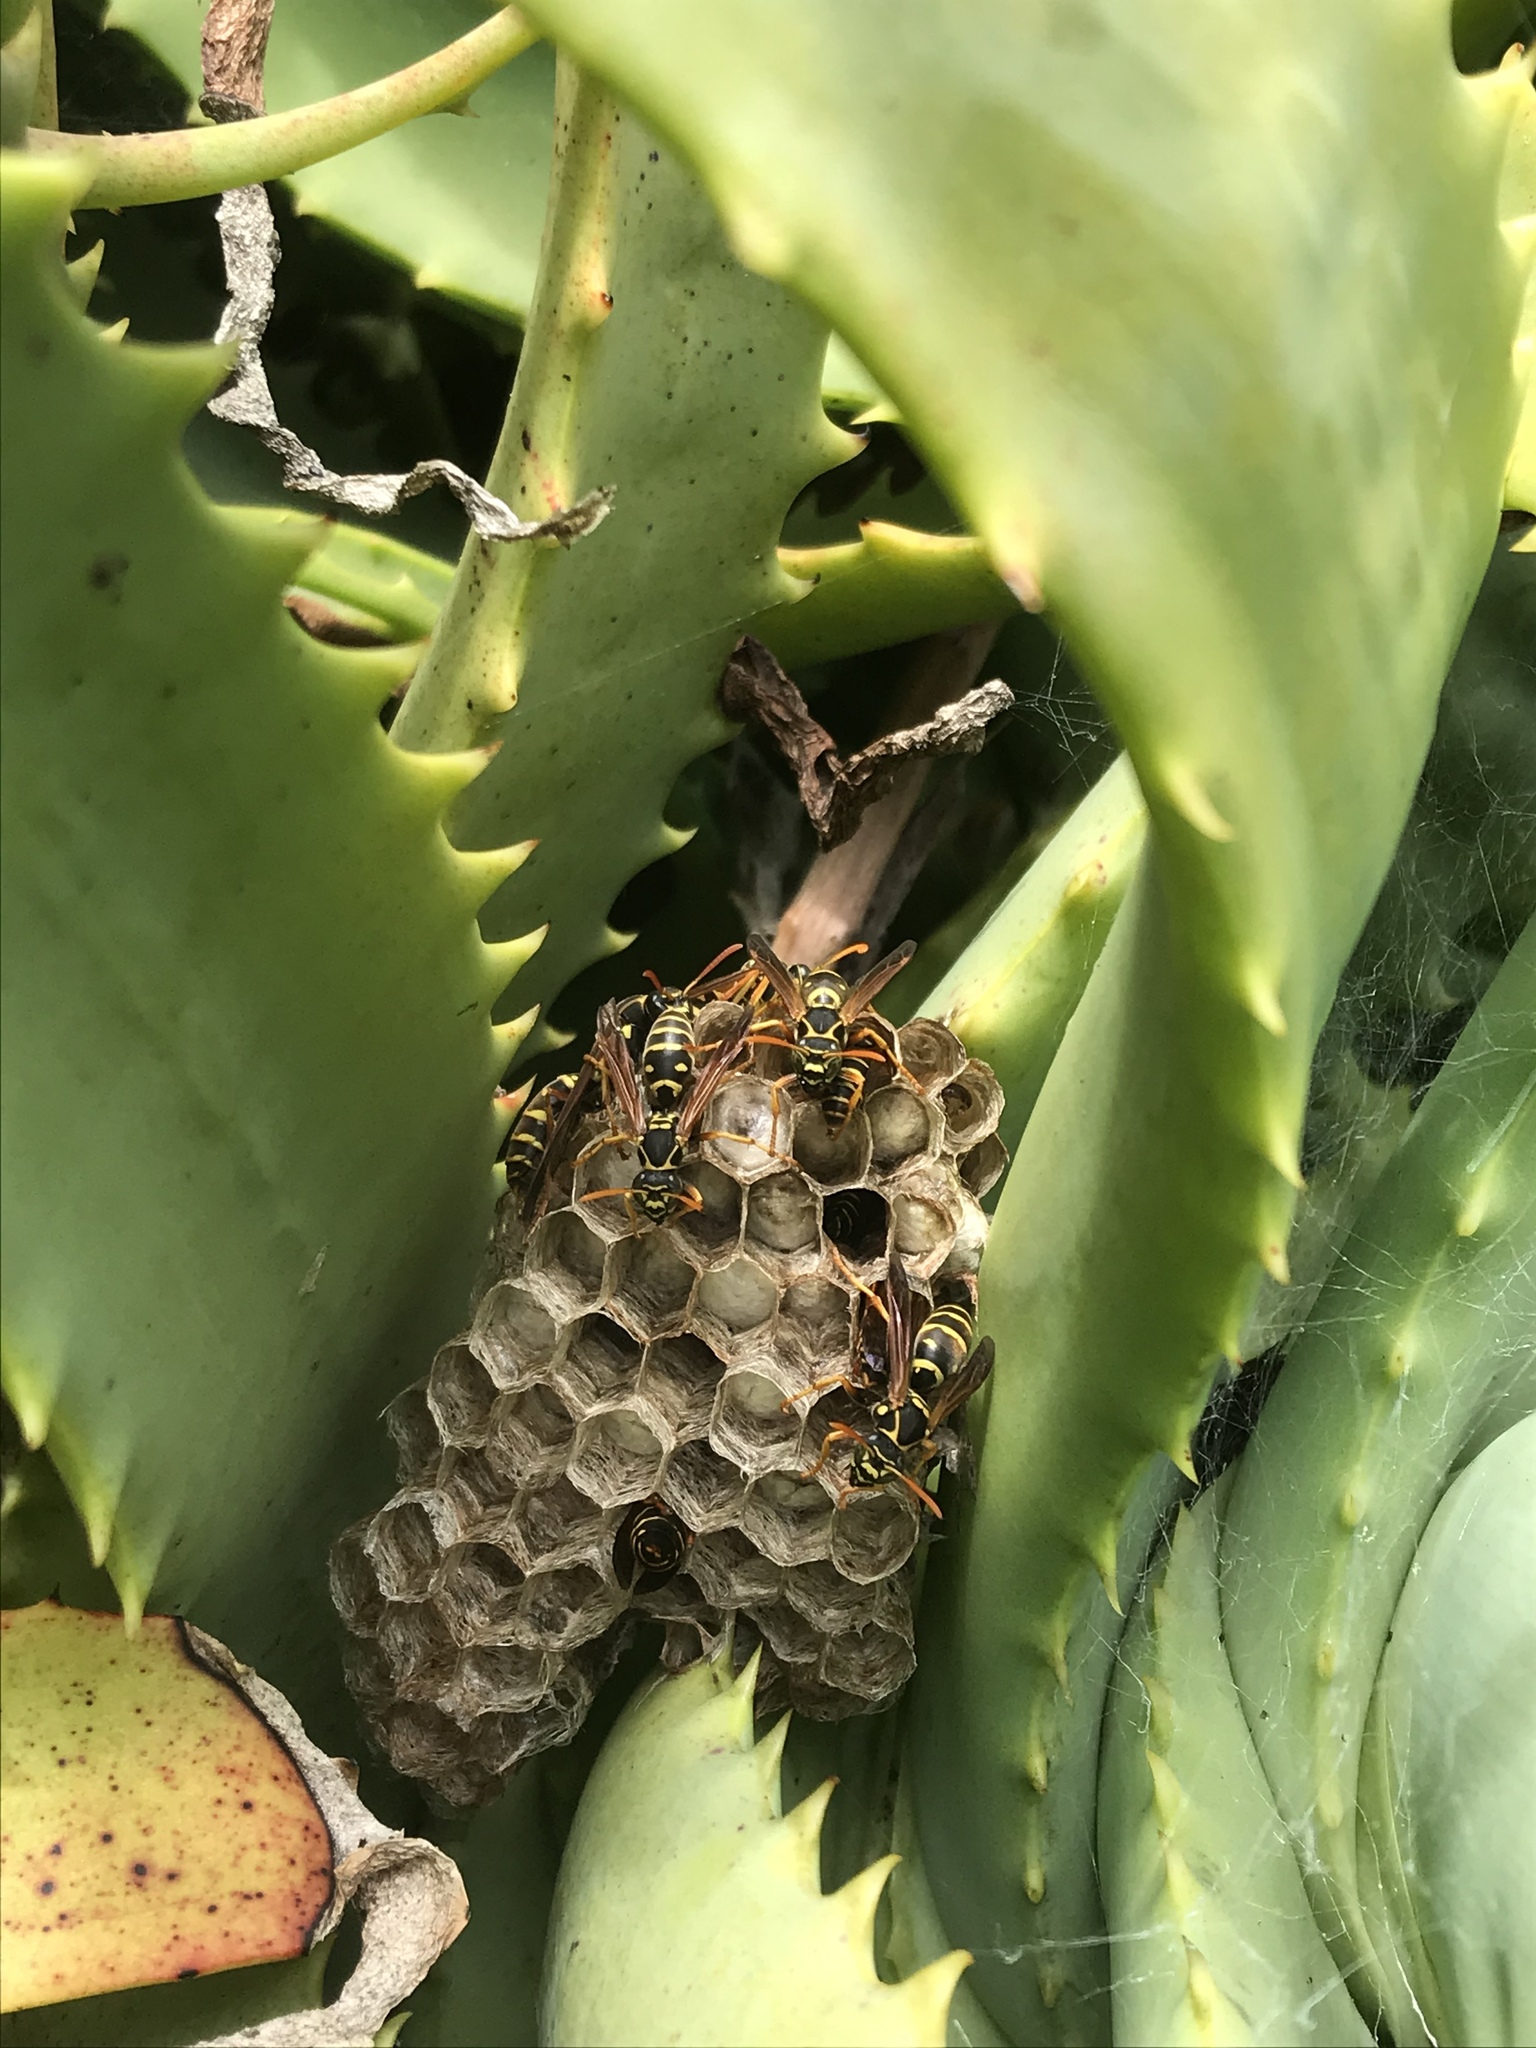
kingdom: Animalia
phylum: Arthropoda
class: Insecta
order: Hymenoptera
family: Eumenidae
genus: Polistes
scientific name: Polistes chinensis
